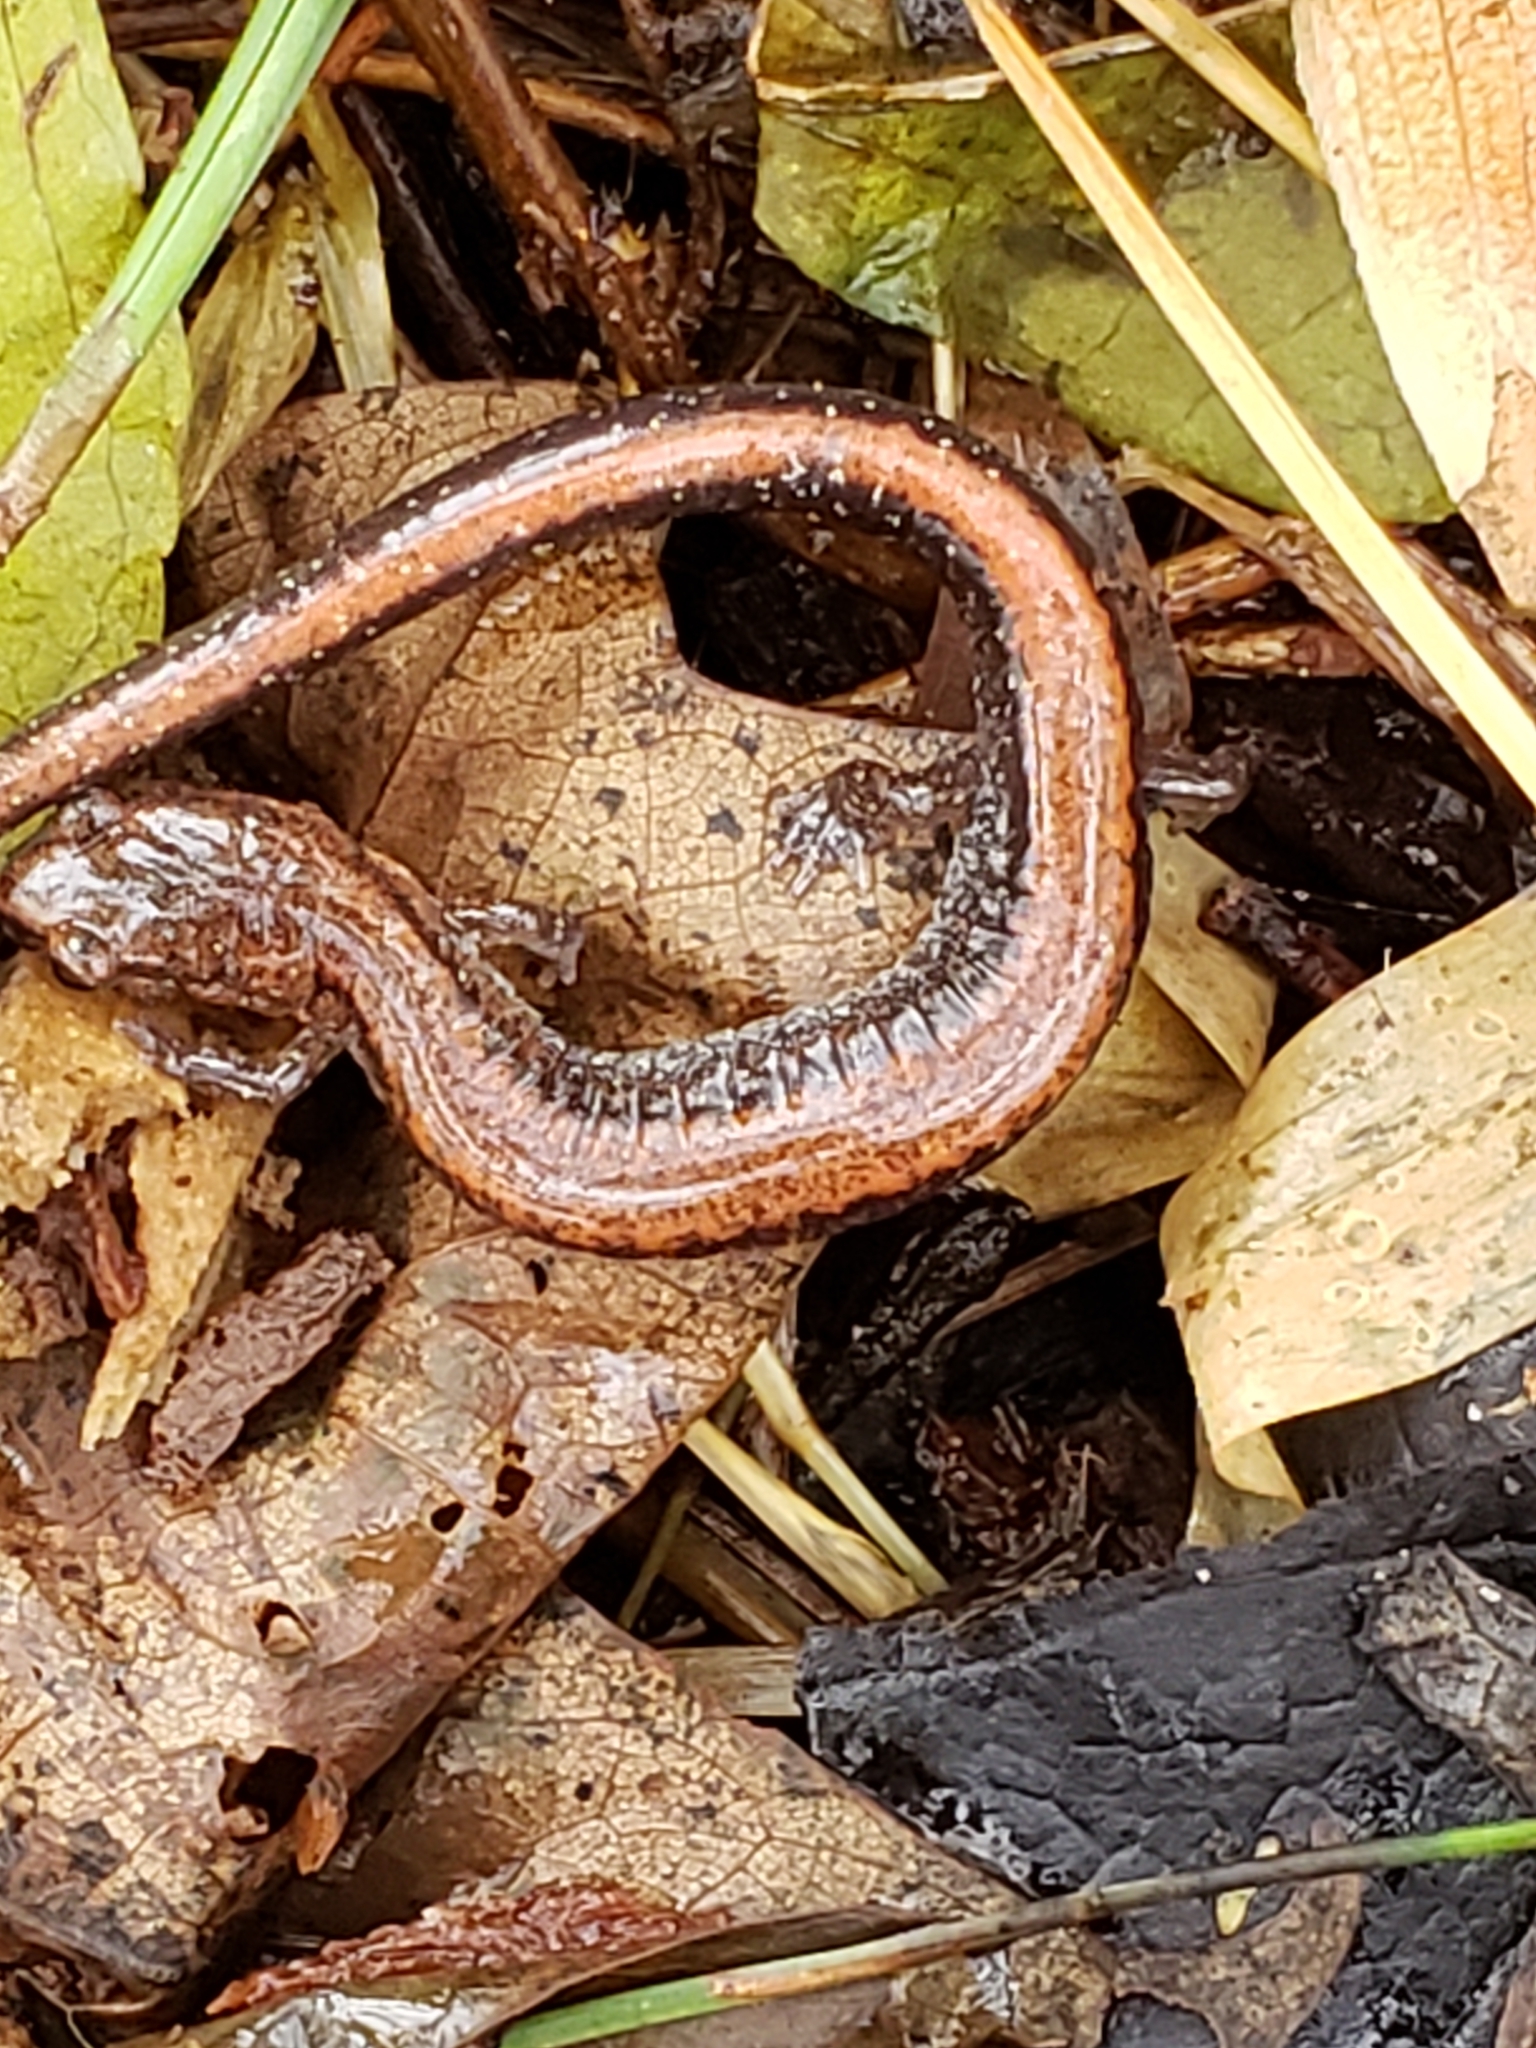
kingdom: Animalia
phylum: Chordata
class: Amphibia
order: Caudata
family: Plethodontidae
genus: Plethodon
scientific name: Plethodon cinereus
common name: Redback salamander
